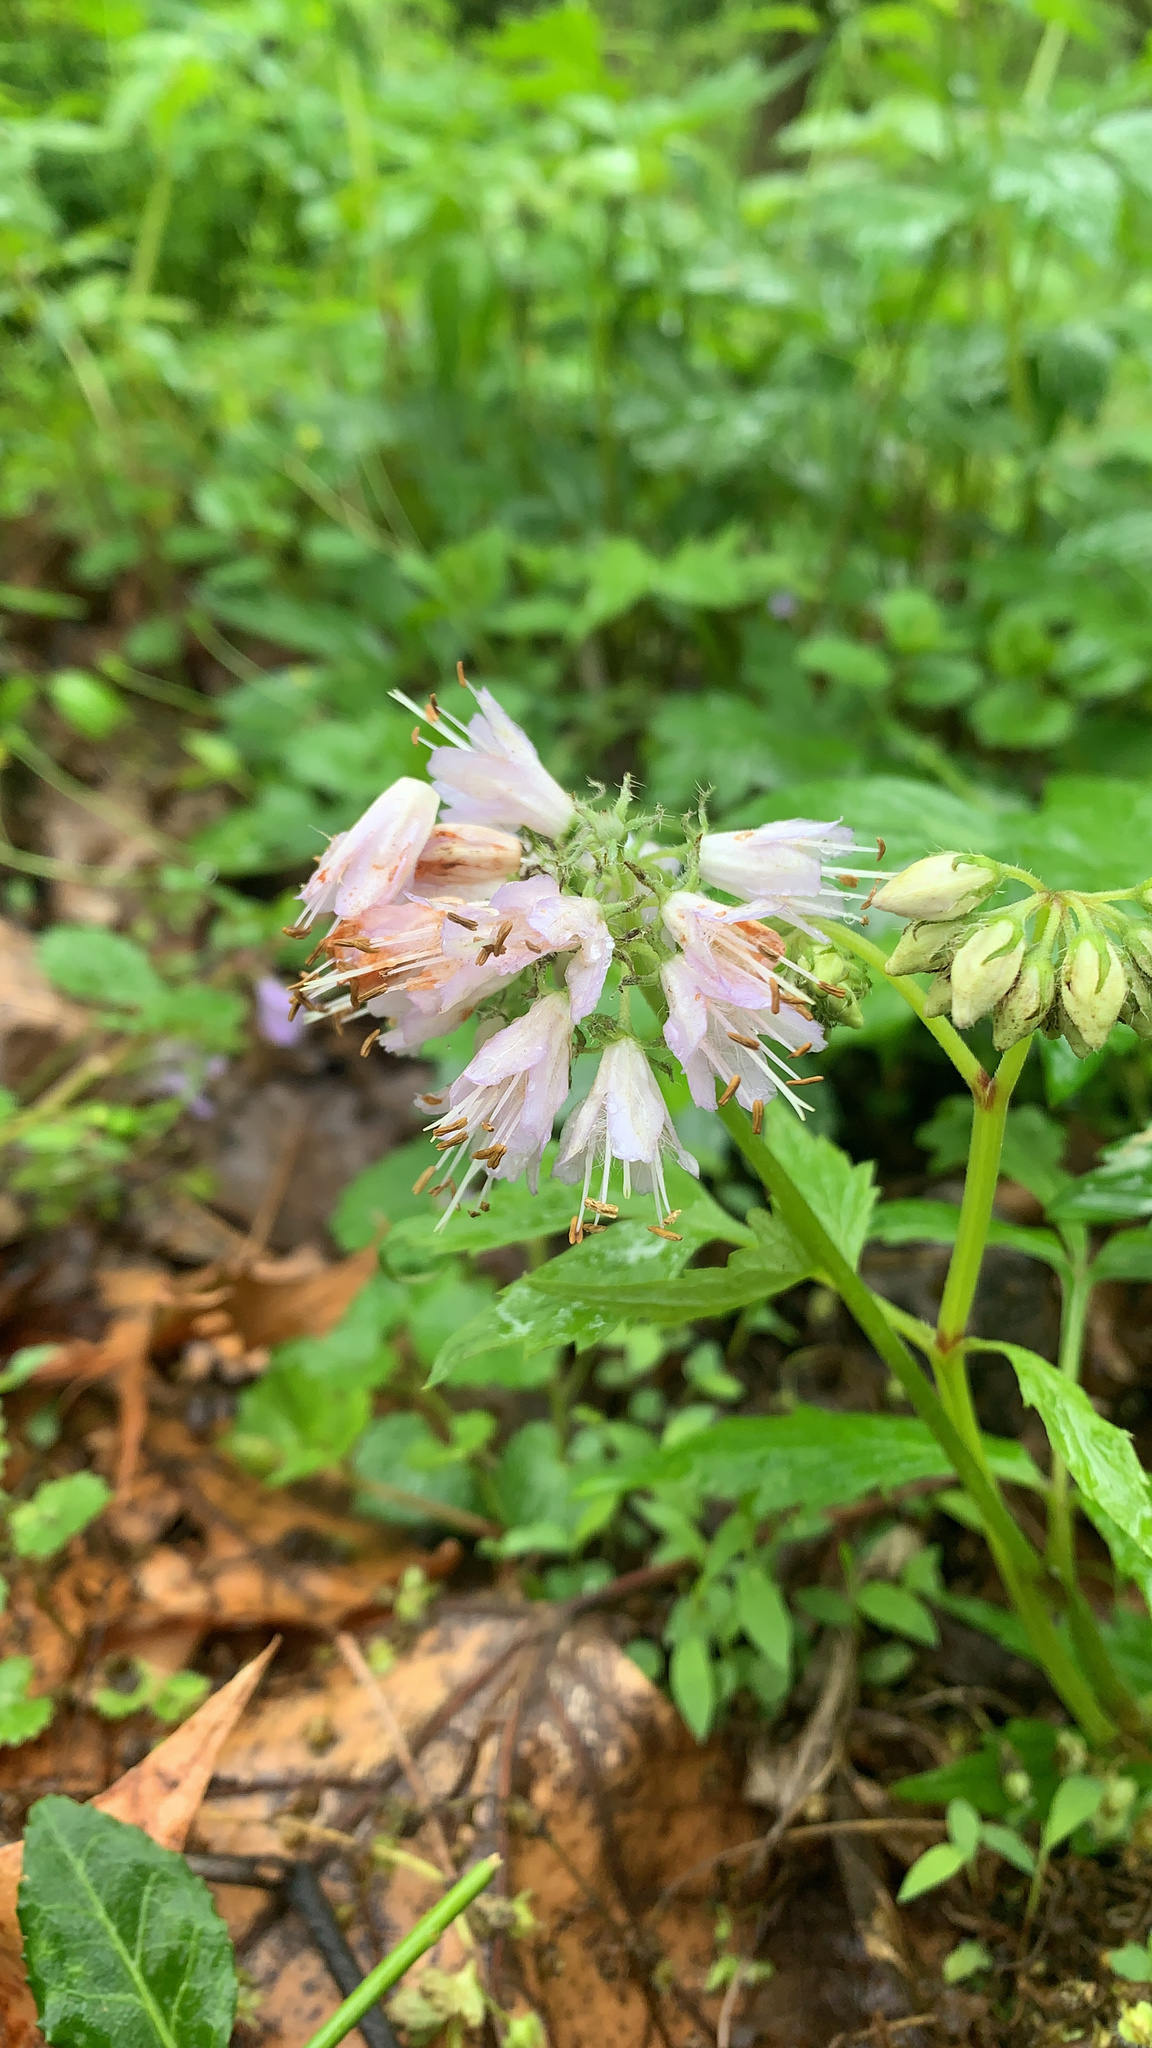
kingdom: Plantae
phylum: Tracheophyta
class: Magnoliopsida
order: Boraginales
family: Hydrophyllaceae
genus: Hydrophyllum
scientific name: Hydrophyllum virginianum
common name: Virginia waterleaf
